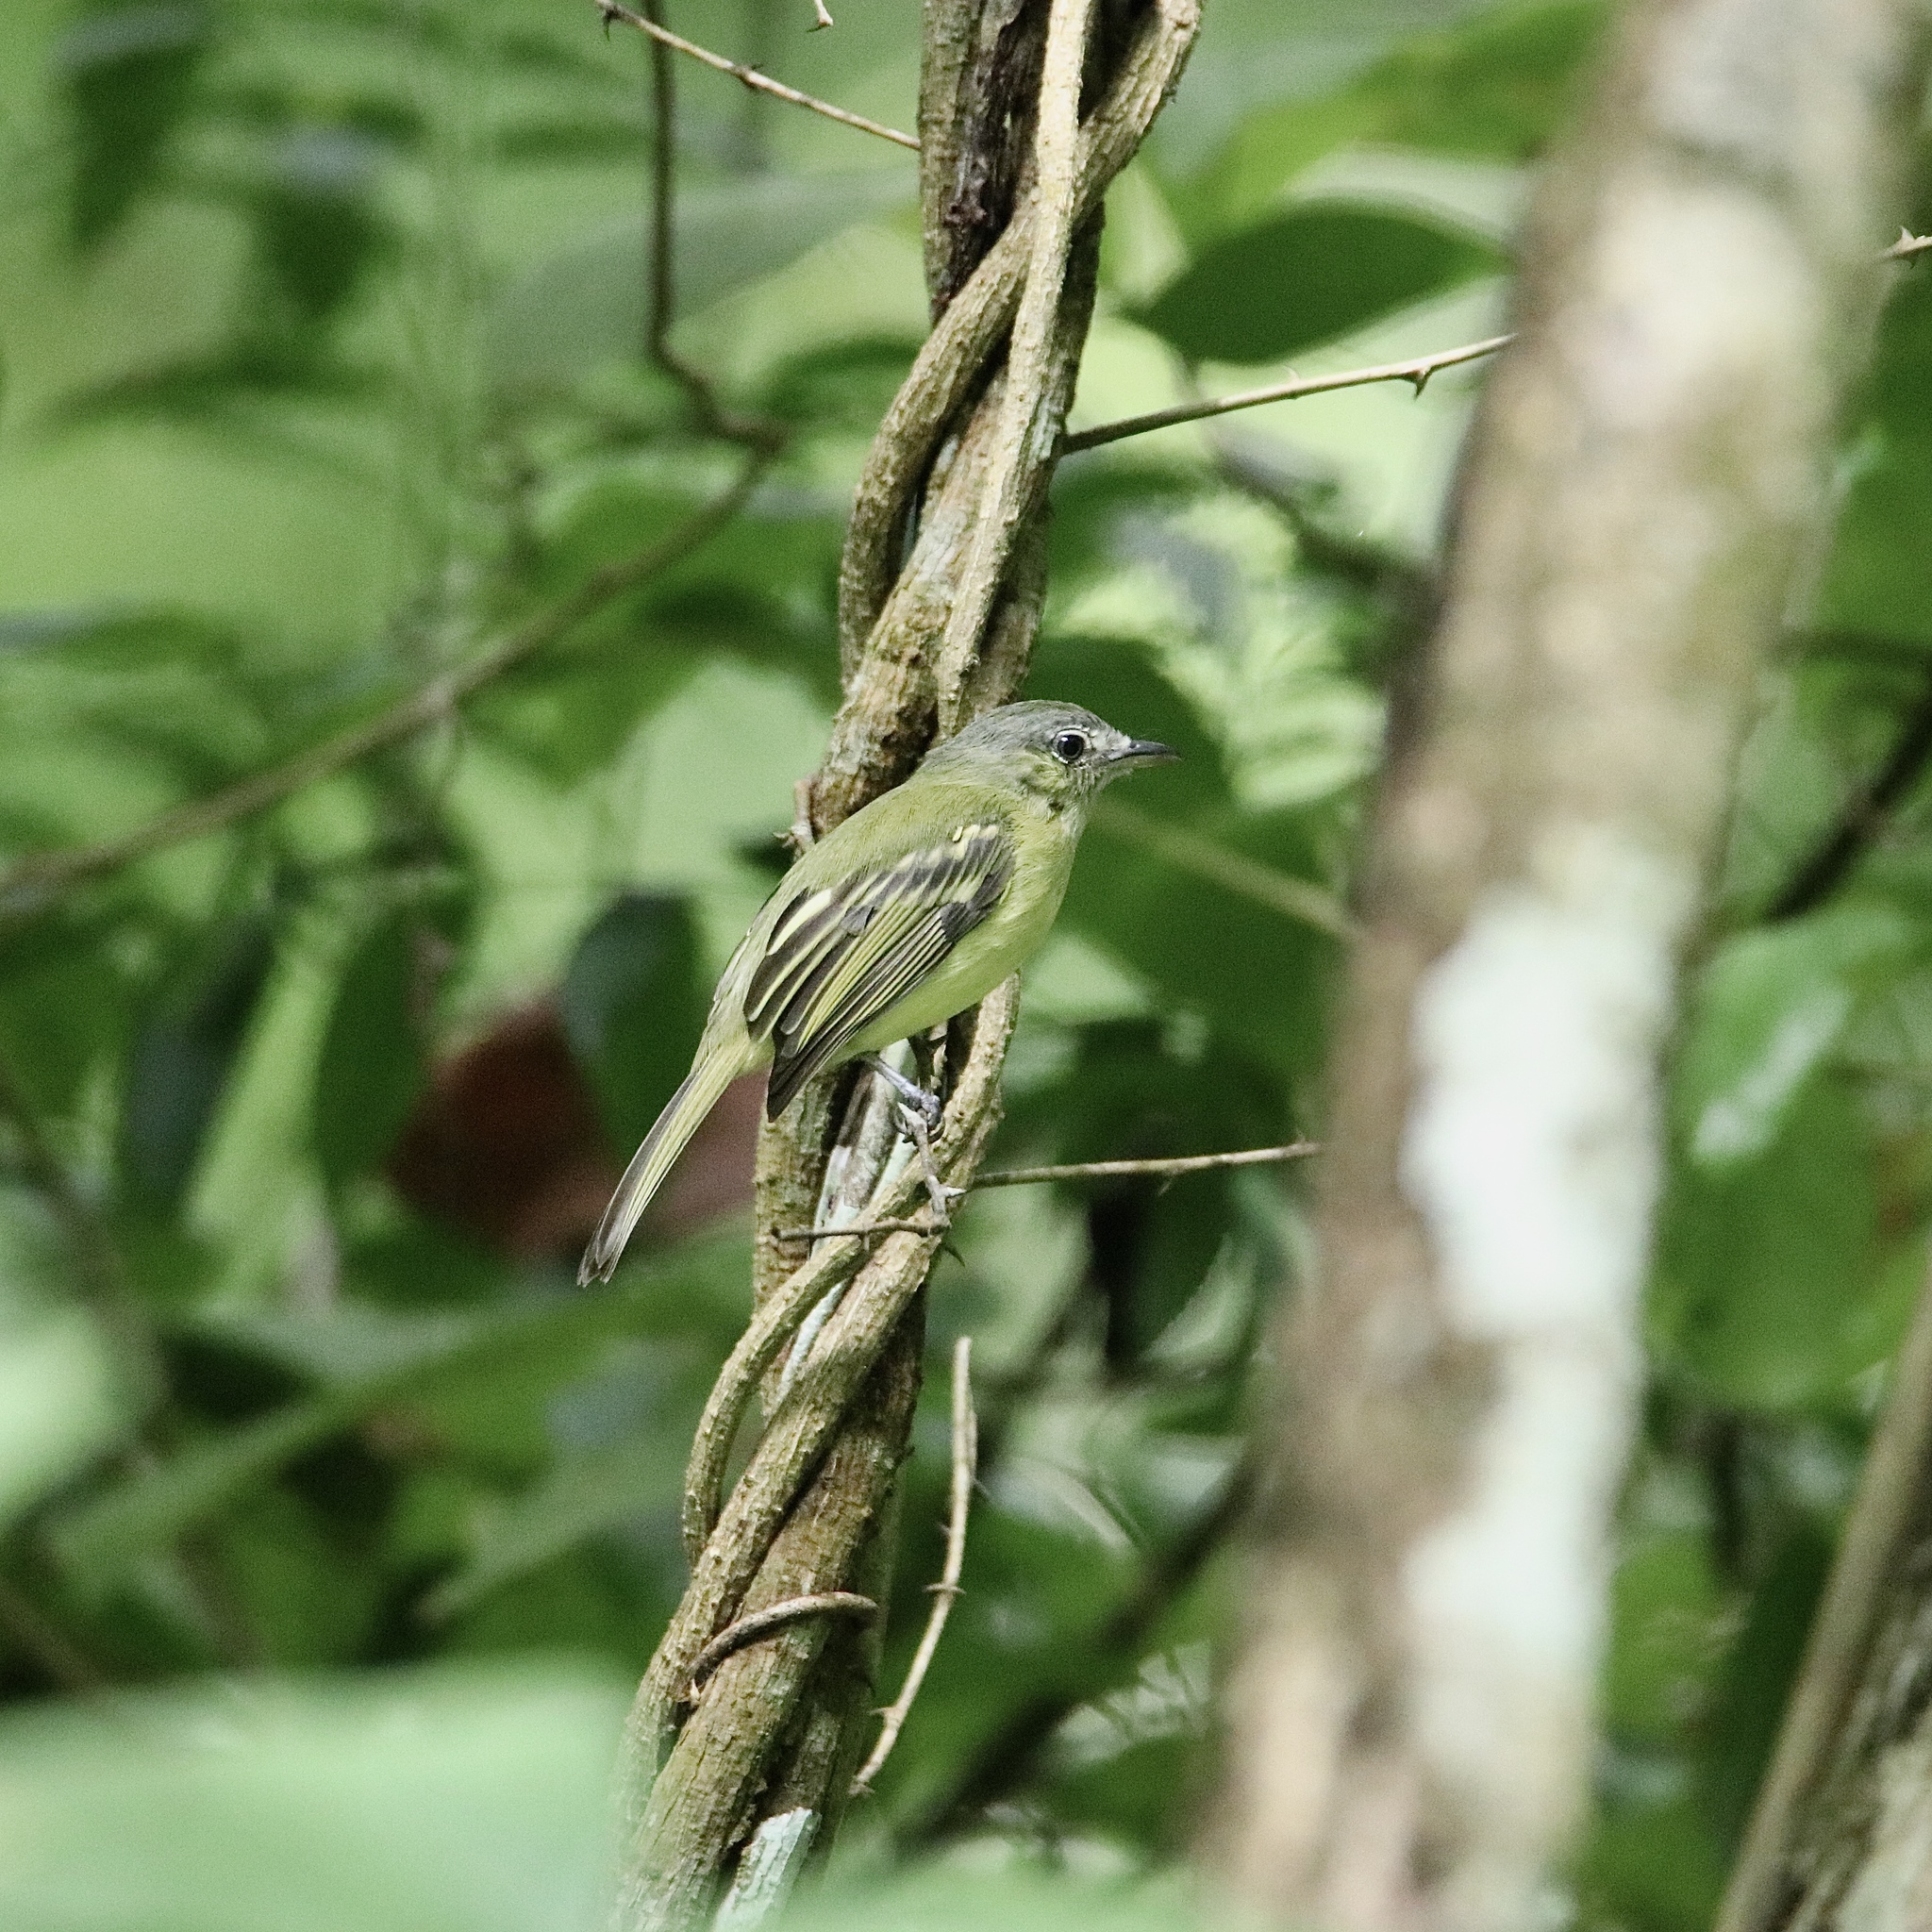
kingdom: Animalia
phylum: Chordata
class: Aves
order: Passeriformes
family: Tyrannidae
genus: Tolmomyias
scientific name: Tolmomyias sulphurescens
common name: Yellow-olive flycatcher
